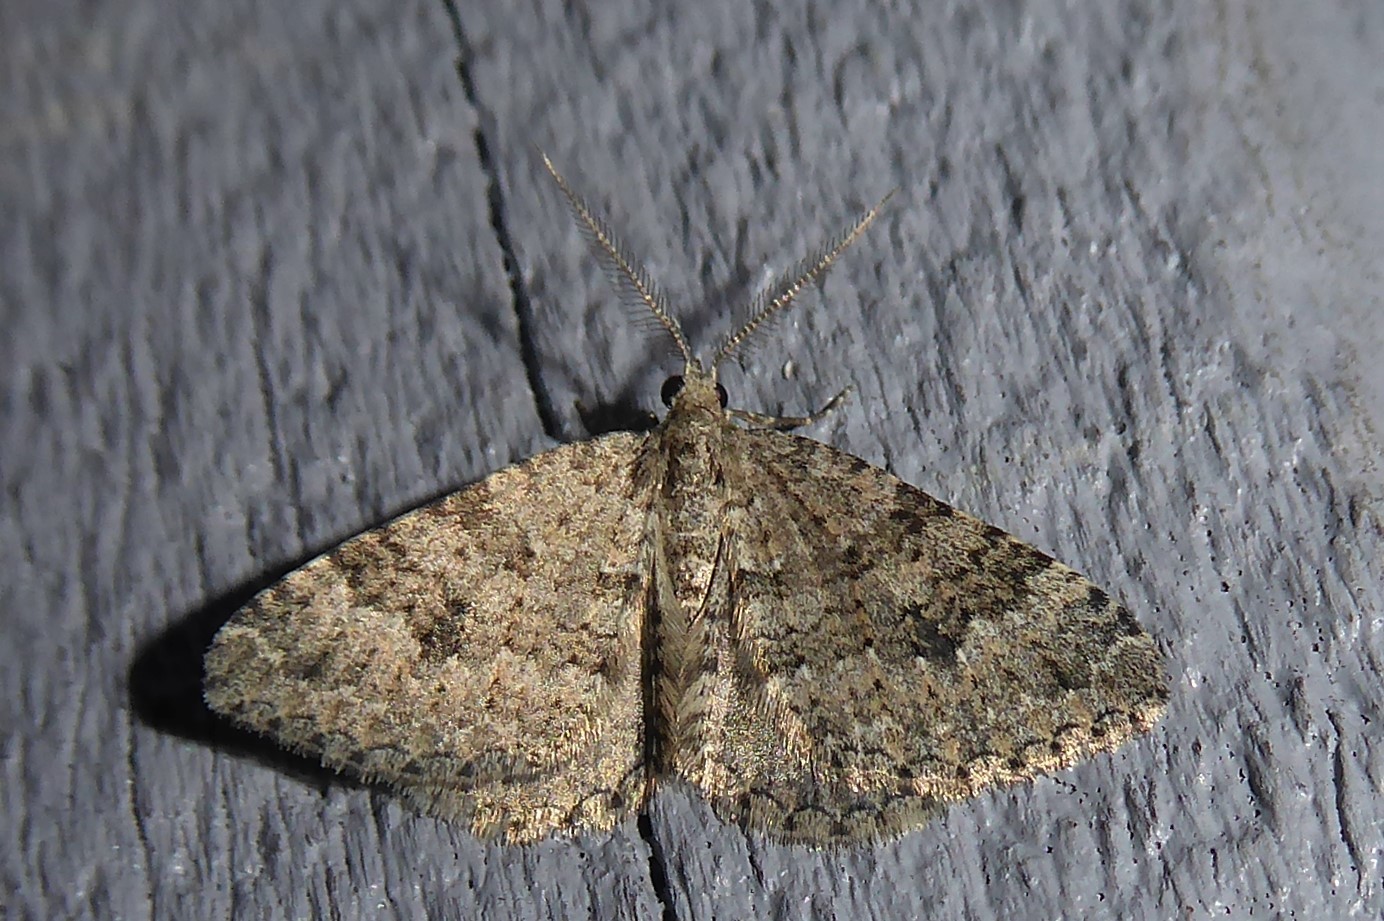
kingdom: Animalia
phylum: Arthropoda
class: Insecta
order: Lepidoptera
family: Geometridae
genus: Helastia
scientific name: Helastia corcularia
